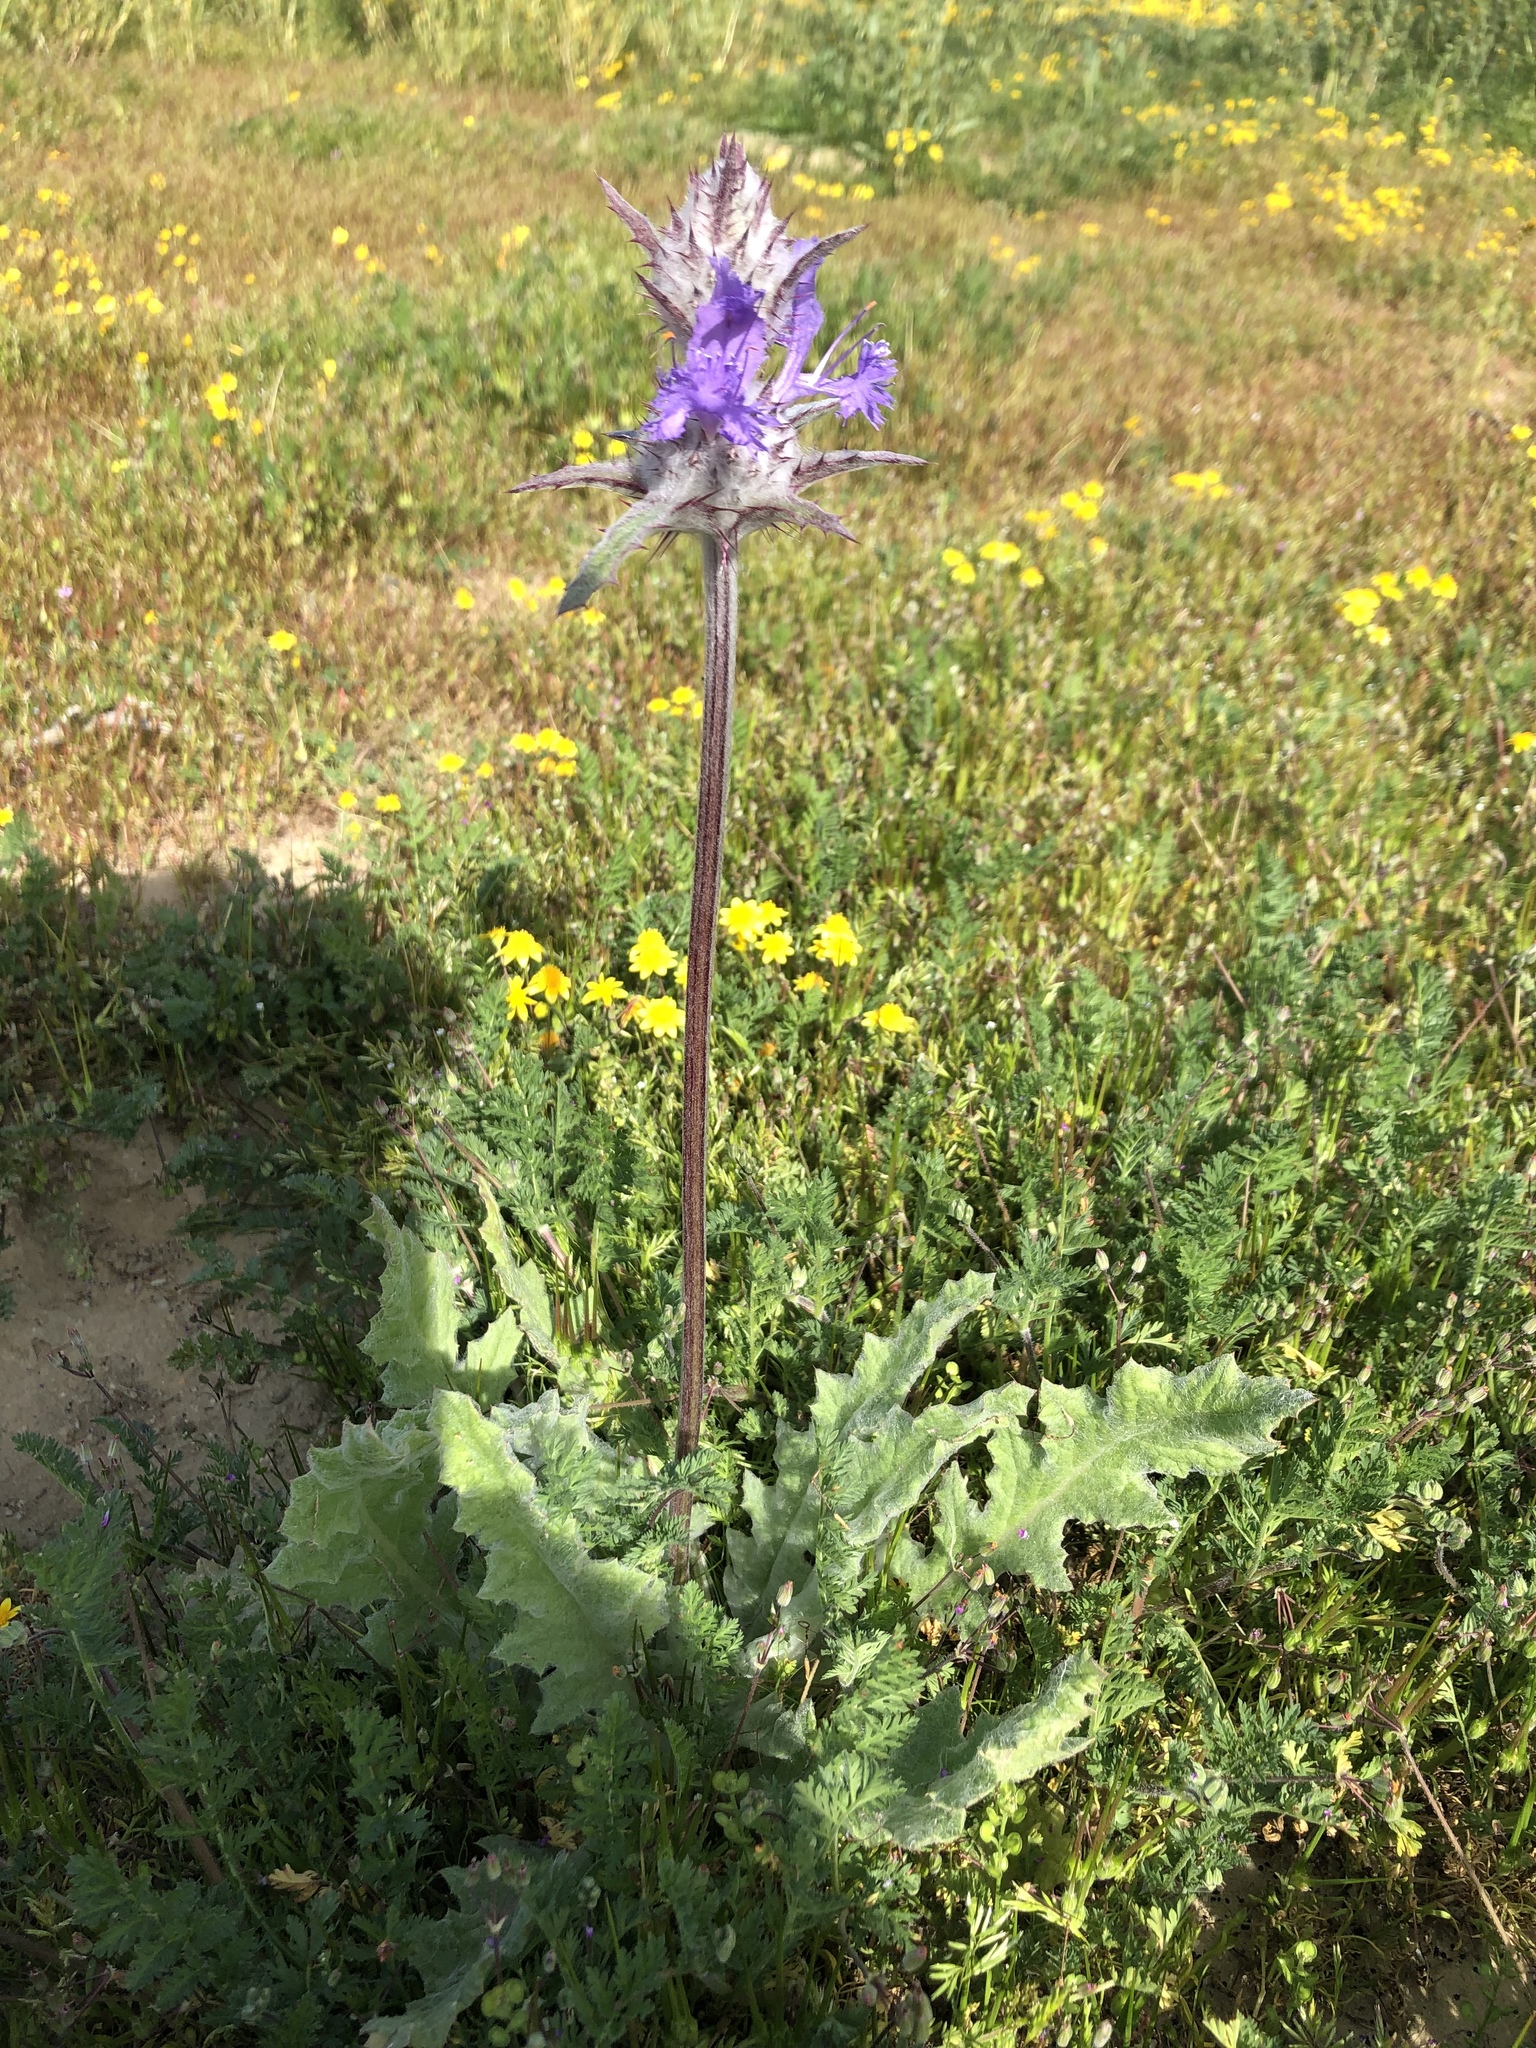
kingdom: Plantae
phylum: Tracheophyta
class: Magnoliopsida
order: Lamiales
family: Lamiaceae
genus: Salvia
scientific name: Salvia carduacea
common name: Thistle sage
